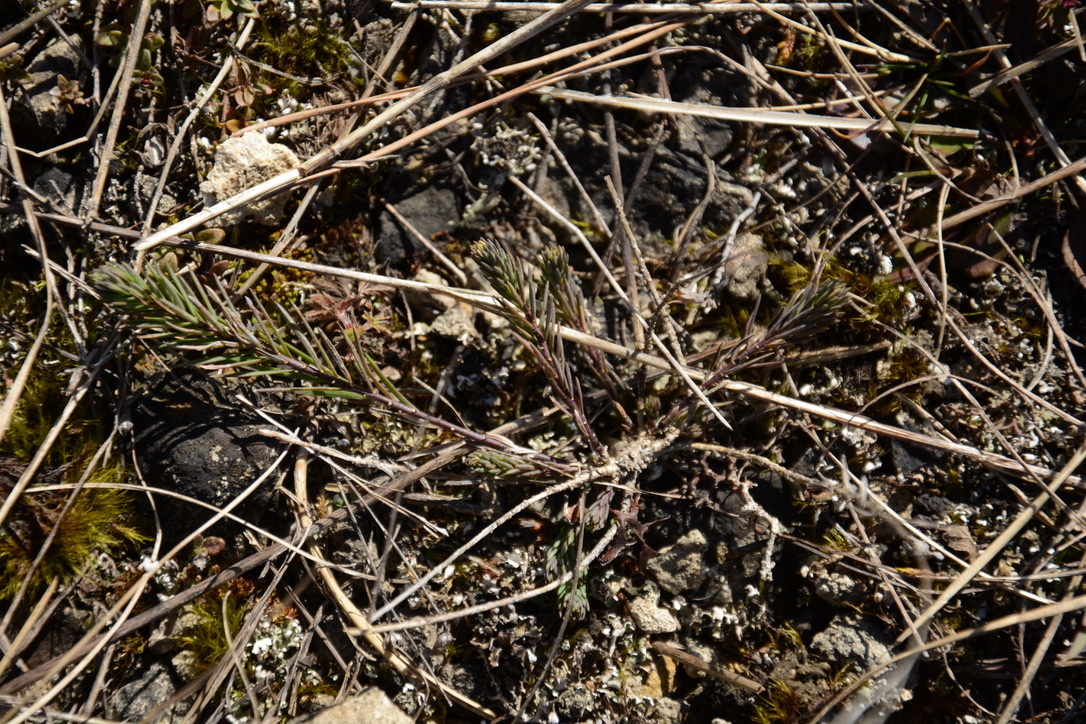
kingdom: Plantae
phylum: Tracheophyta
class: Magnoliopsida
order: Malvales
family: Cistaceae
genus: Fumana
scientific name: Fumana procumbens
